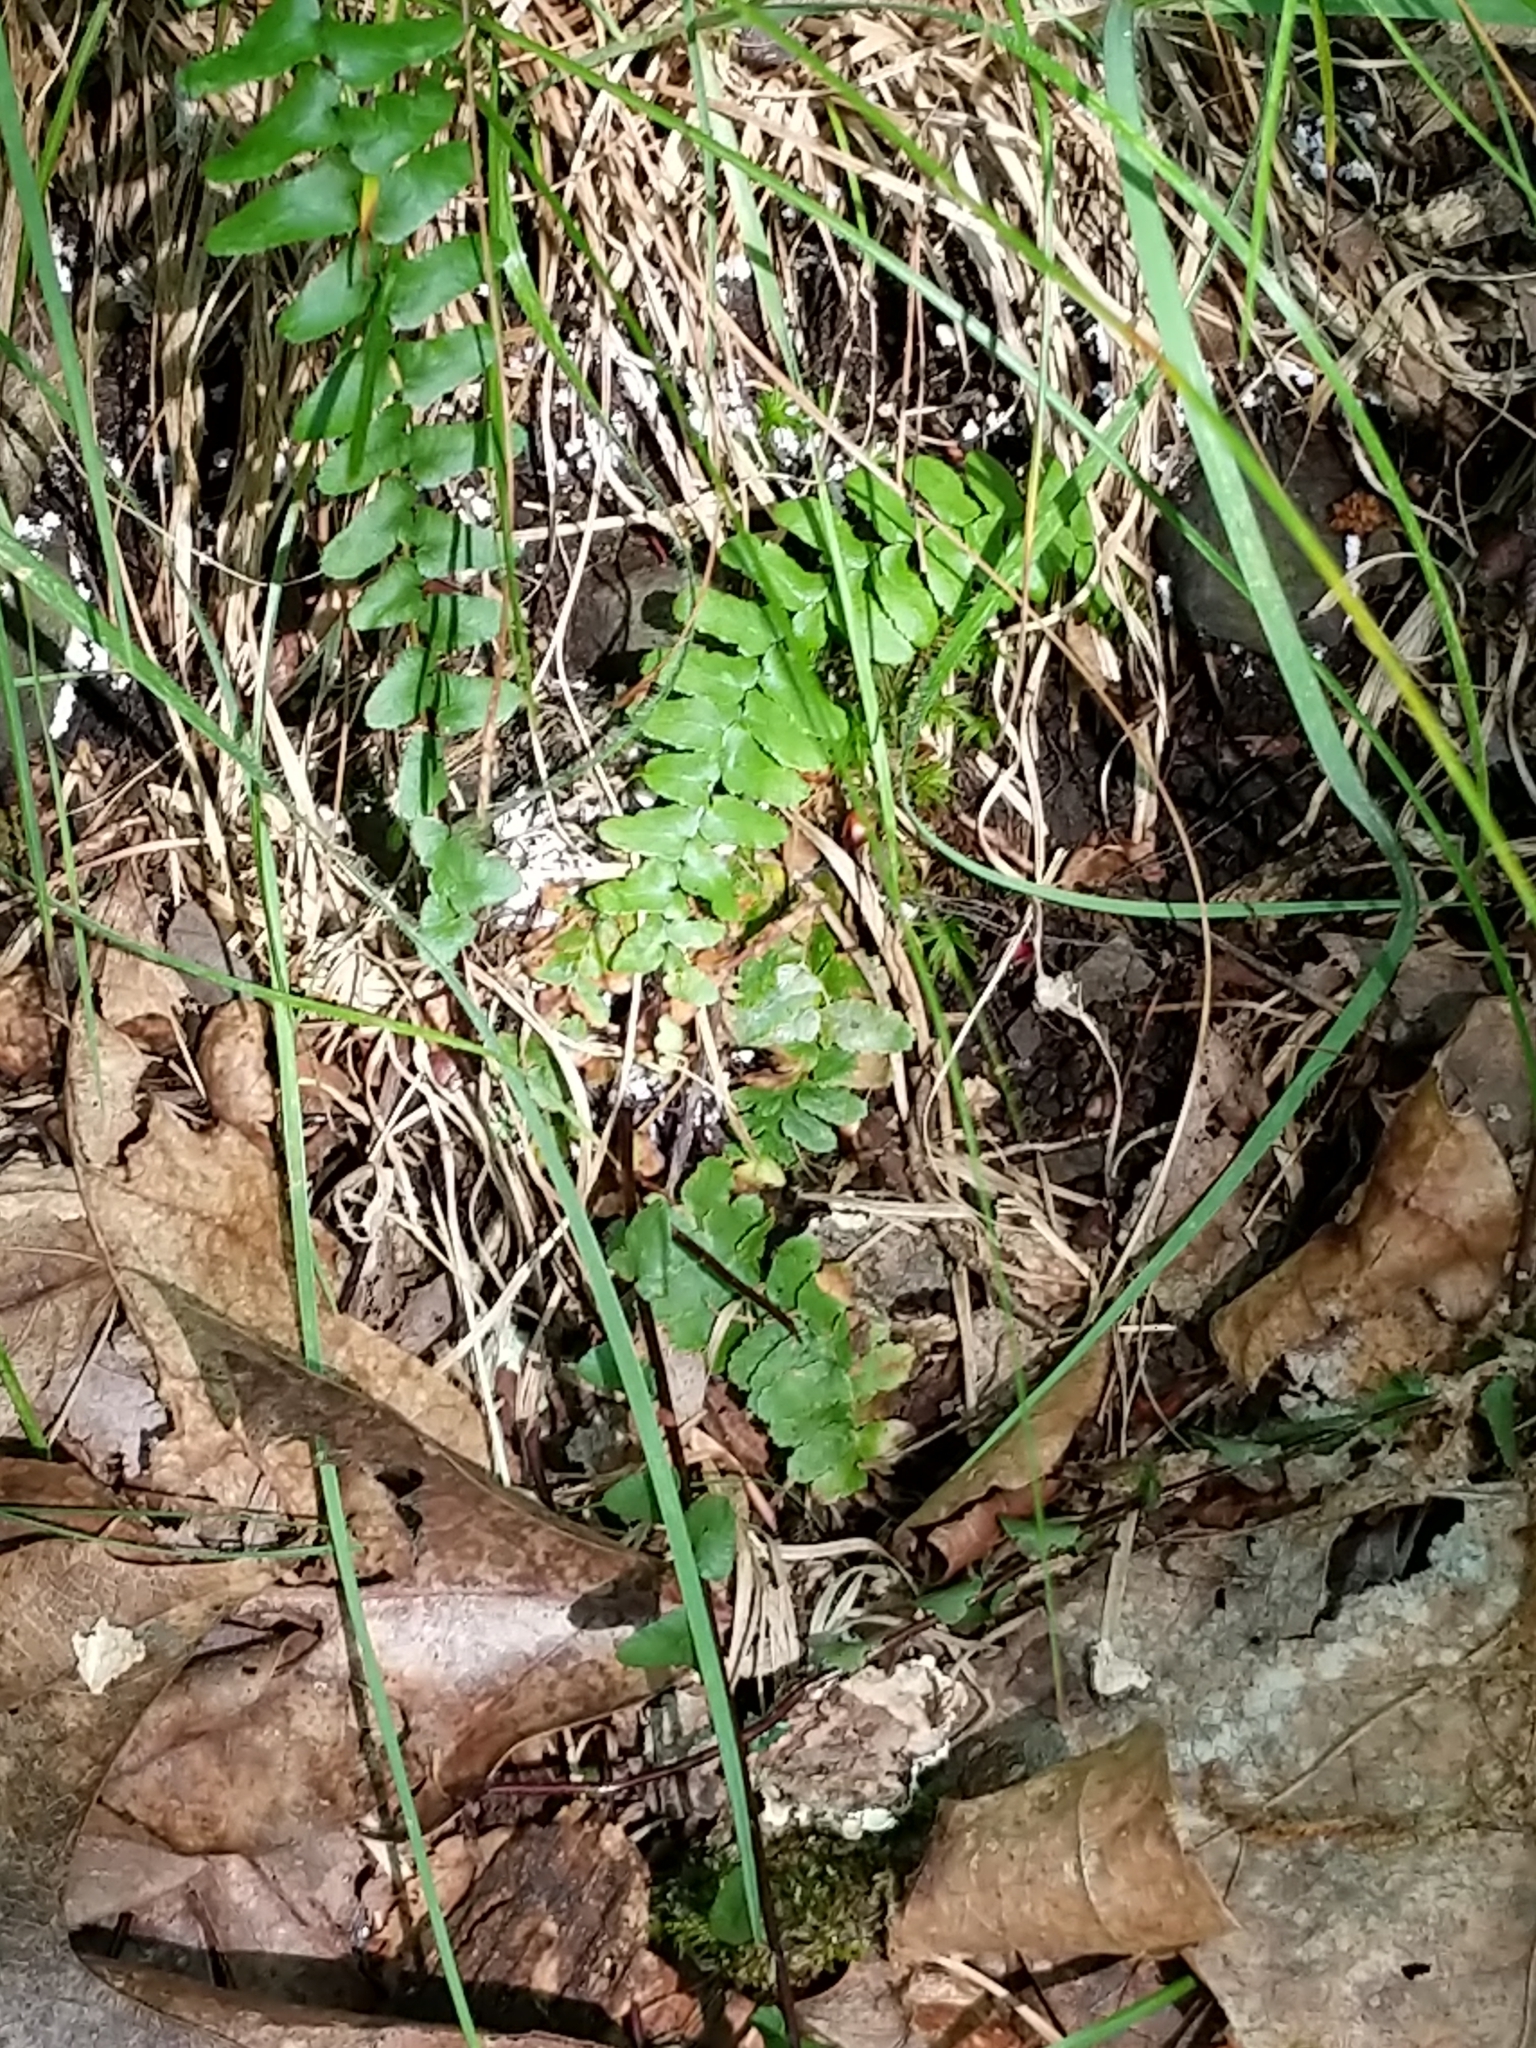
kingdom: Plantae
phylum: Tracheophyta
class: Polypodiopsida
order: Polypodiales
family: Aspleniaceae
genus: Asplenium
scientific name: Asplenium platyneuron
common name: Ebony spleenwort
